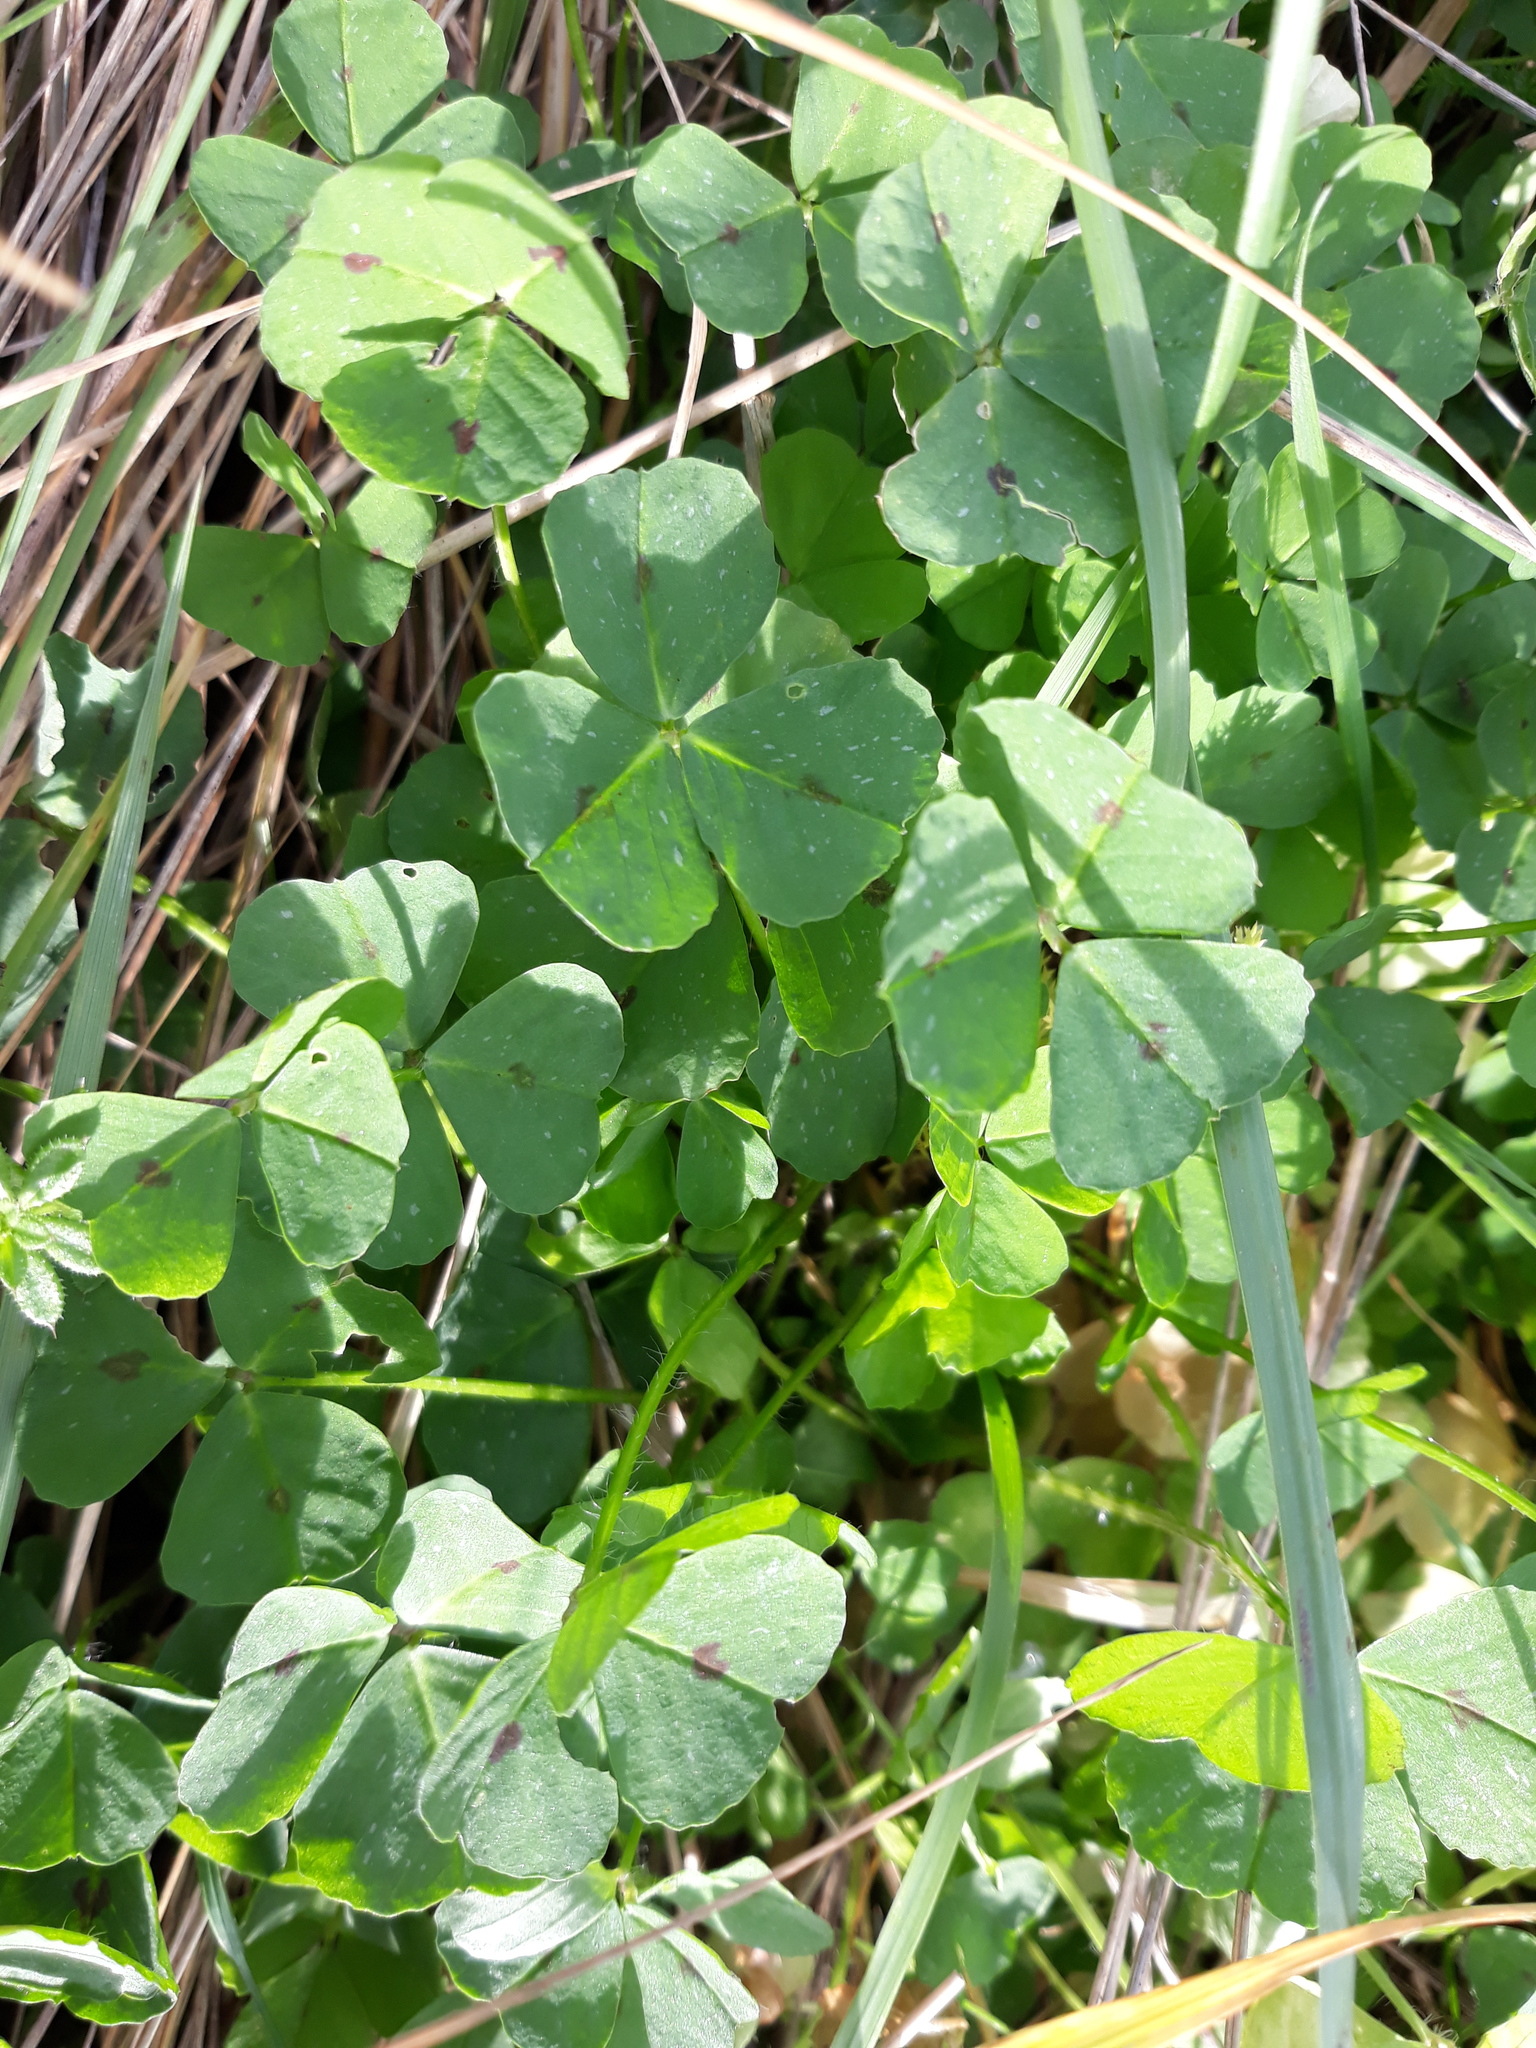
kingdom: Plantae
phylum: Tracheophyta
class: Magnoliopsida
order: Fabales
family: Fabaceae
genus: Medicago
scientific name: Medicago arabica
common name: Spotted medick
